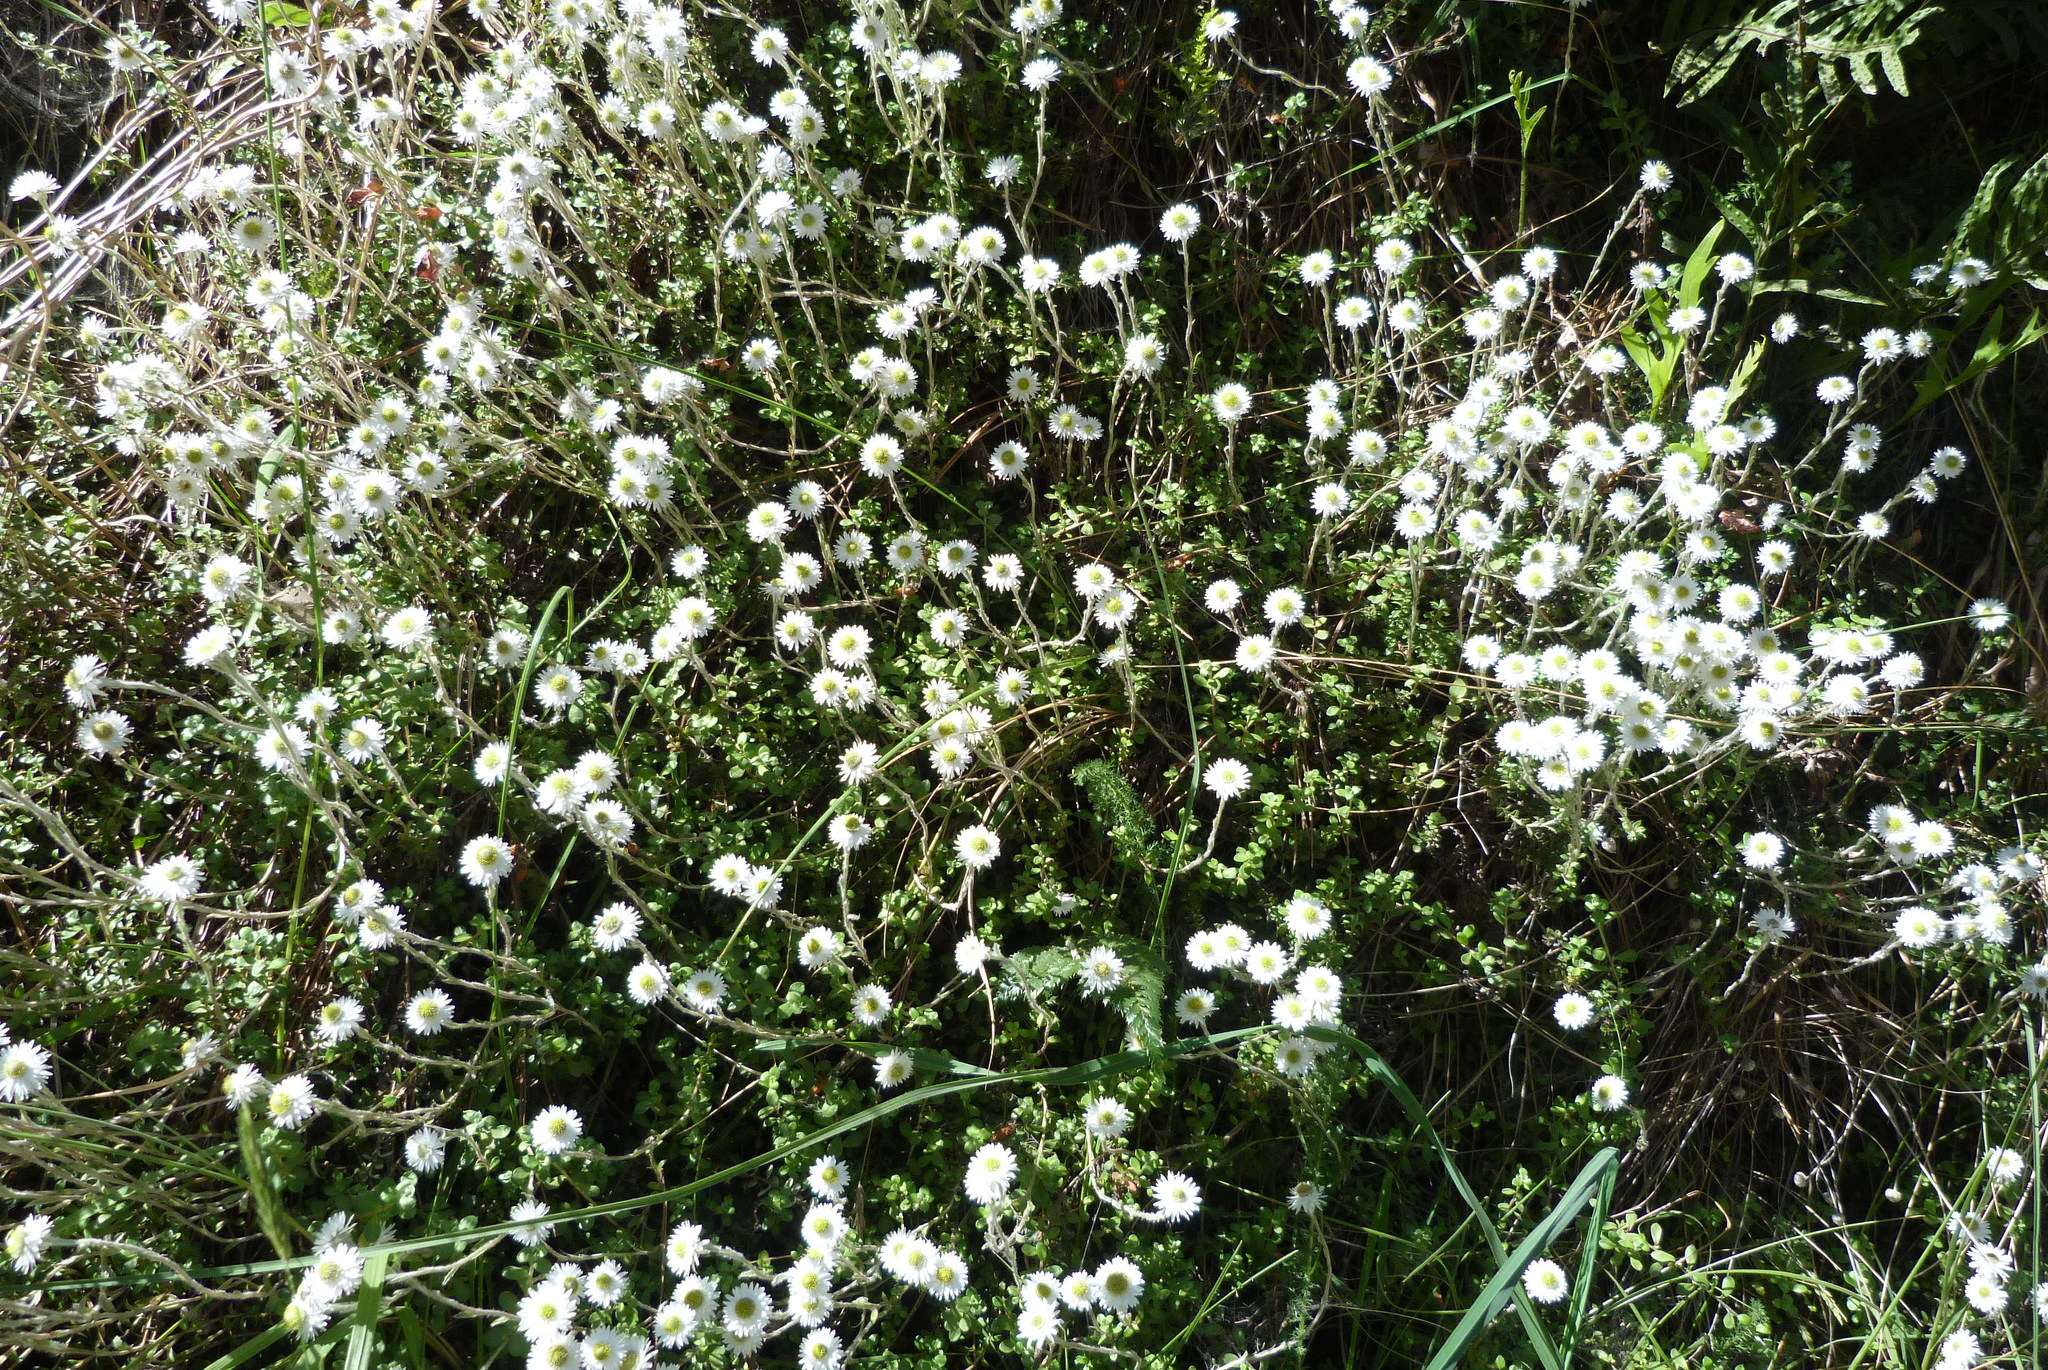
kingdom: Plantae
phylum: Tracheophyta
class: Magnoliopsida
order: Asterales
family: Asteraceae
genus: Anaphalioides
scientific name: Anaphalioides bellidioides
